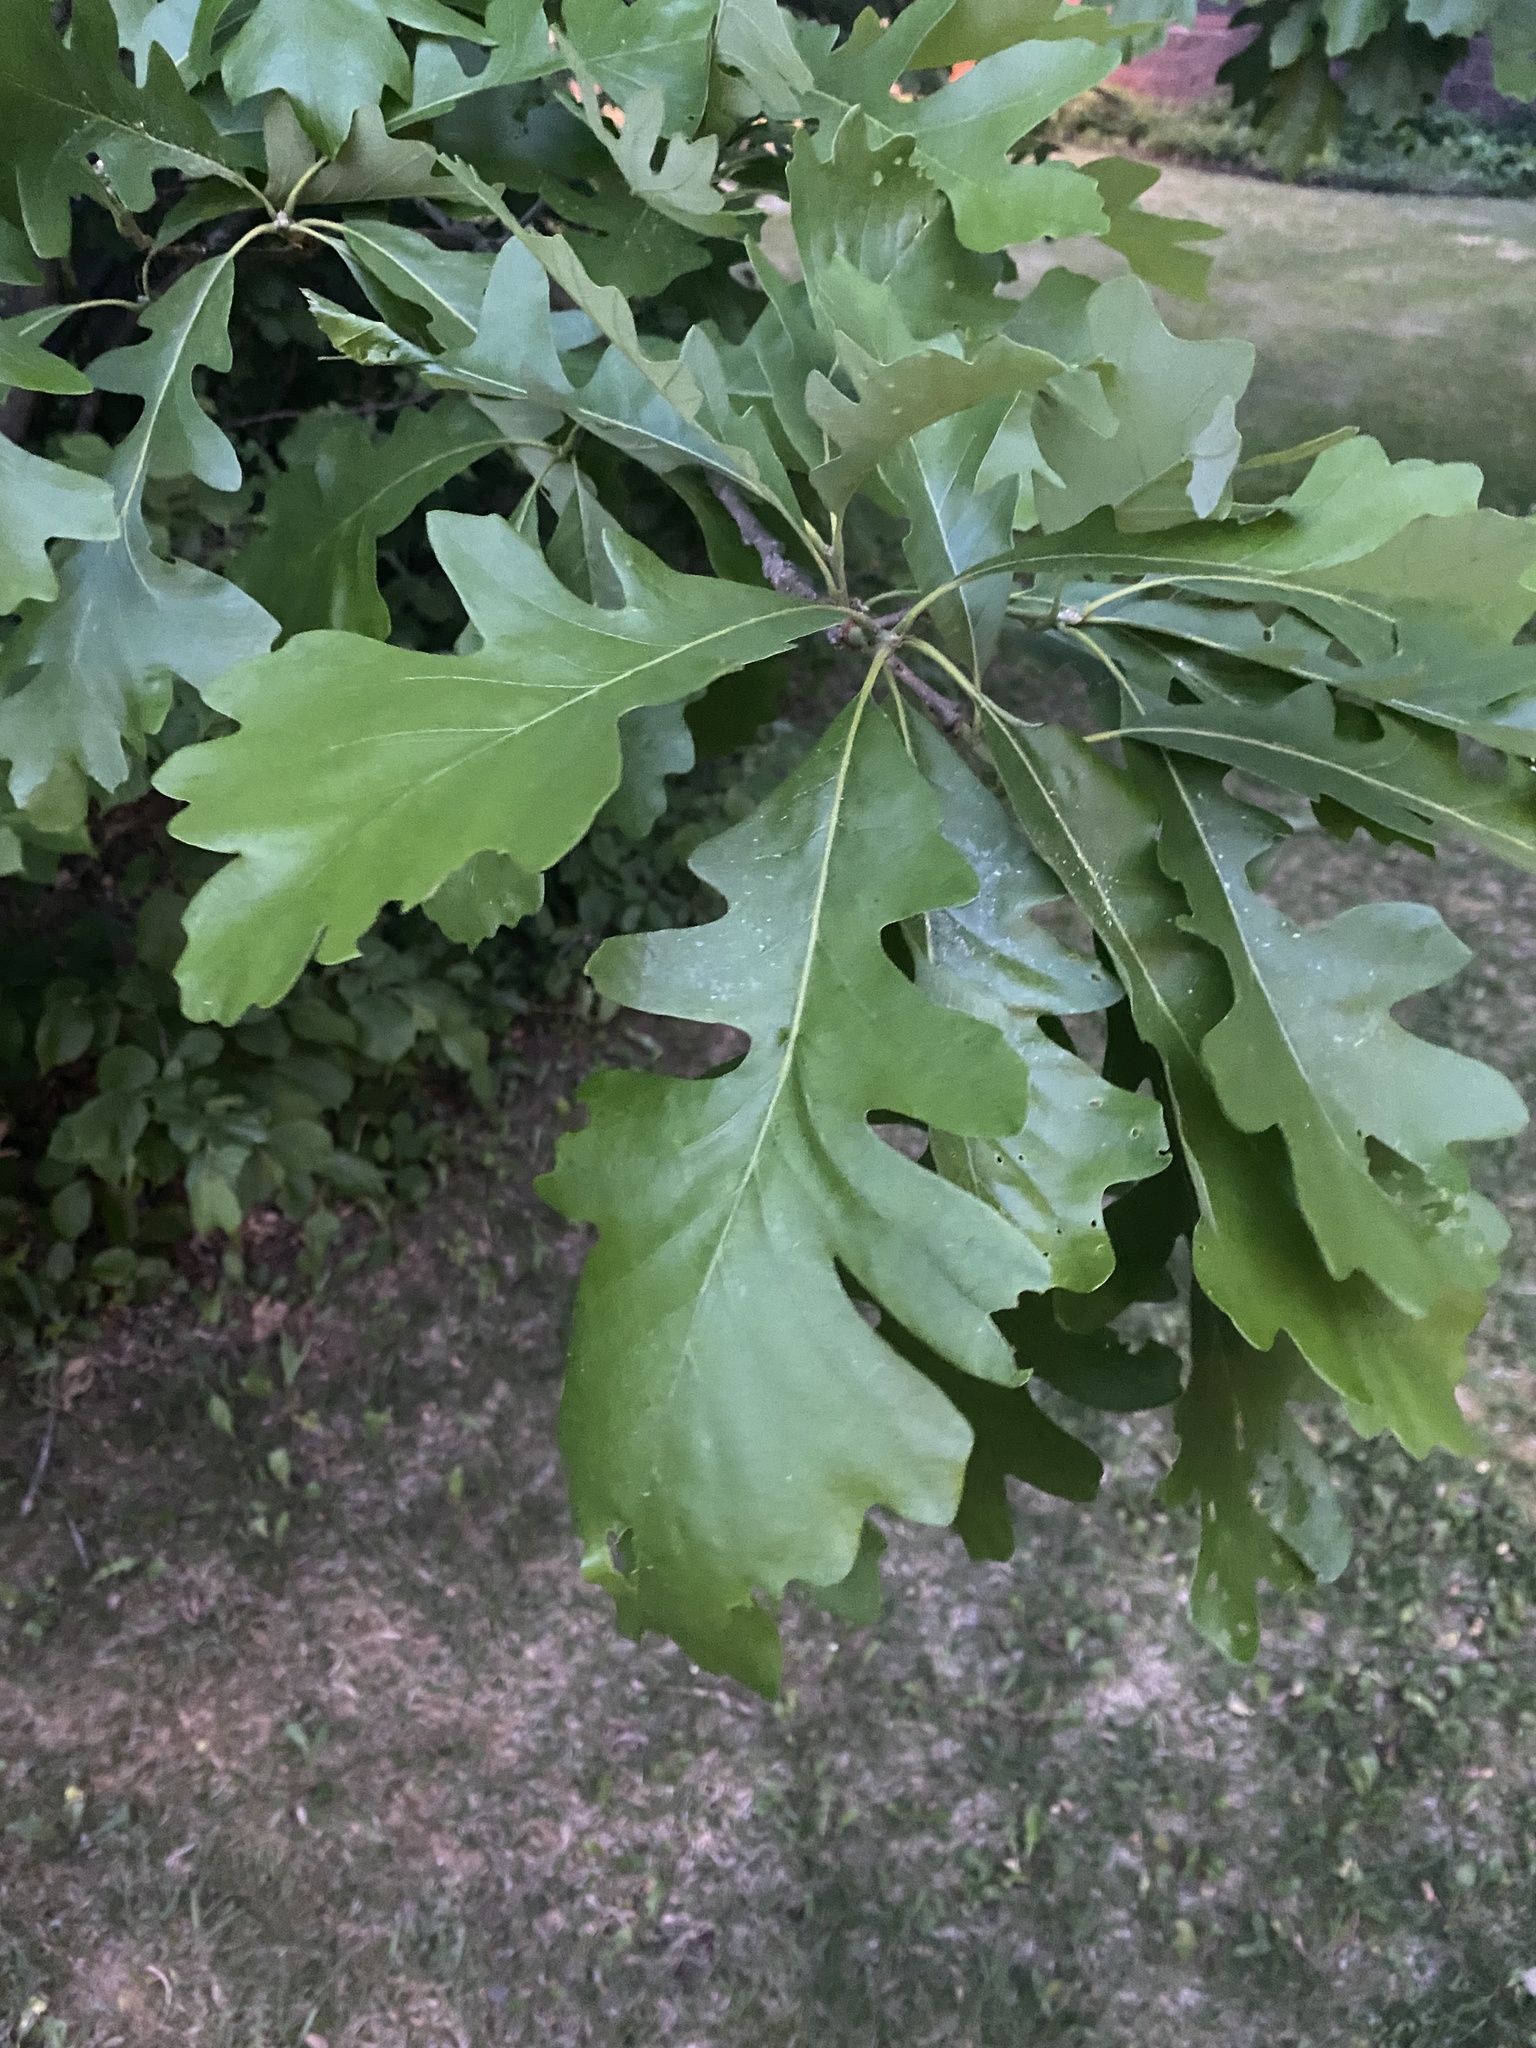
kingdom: Plantae
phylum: Tracheophyta
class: Magnoliopsida
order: Fagales
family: Fagaceae
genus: Quercus
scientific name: Quercus macrocarpa
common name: Bur oak
